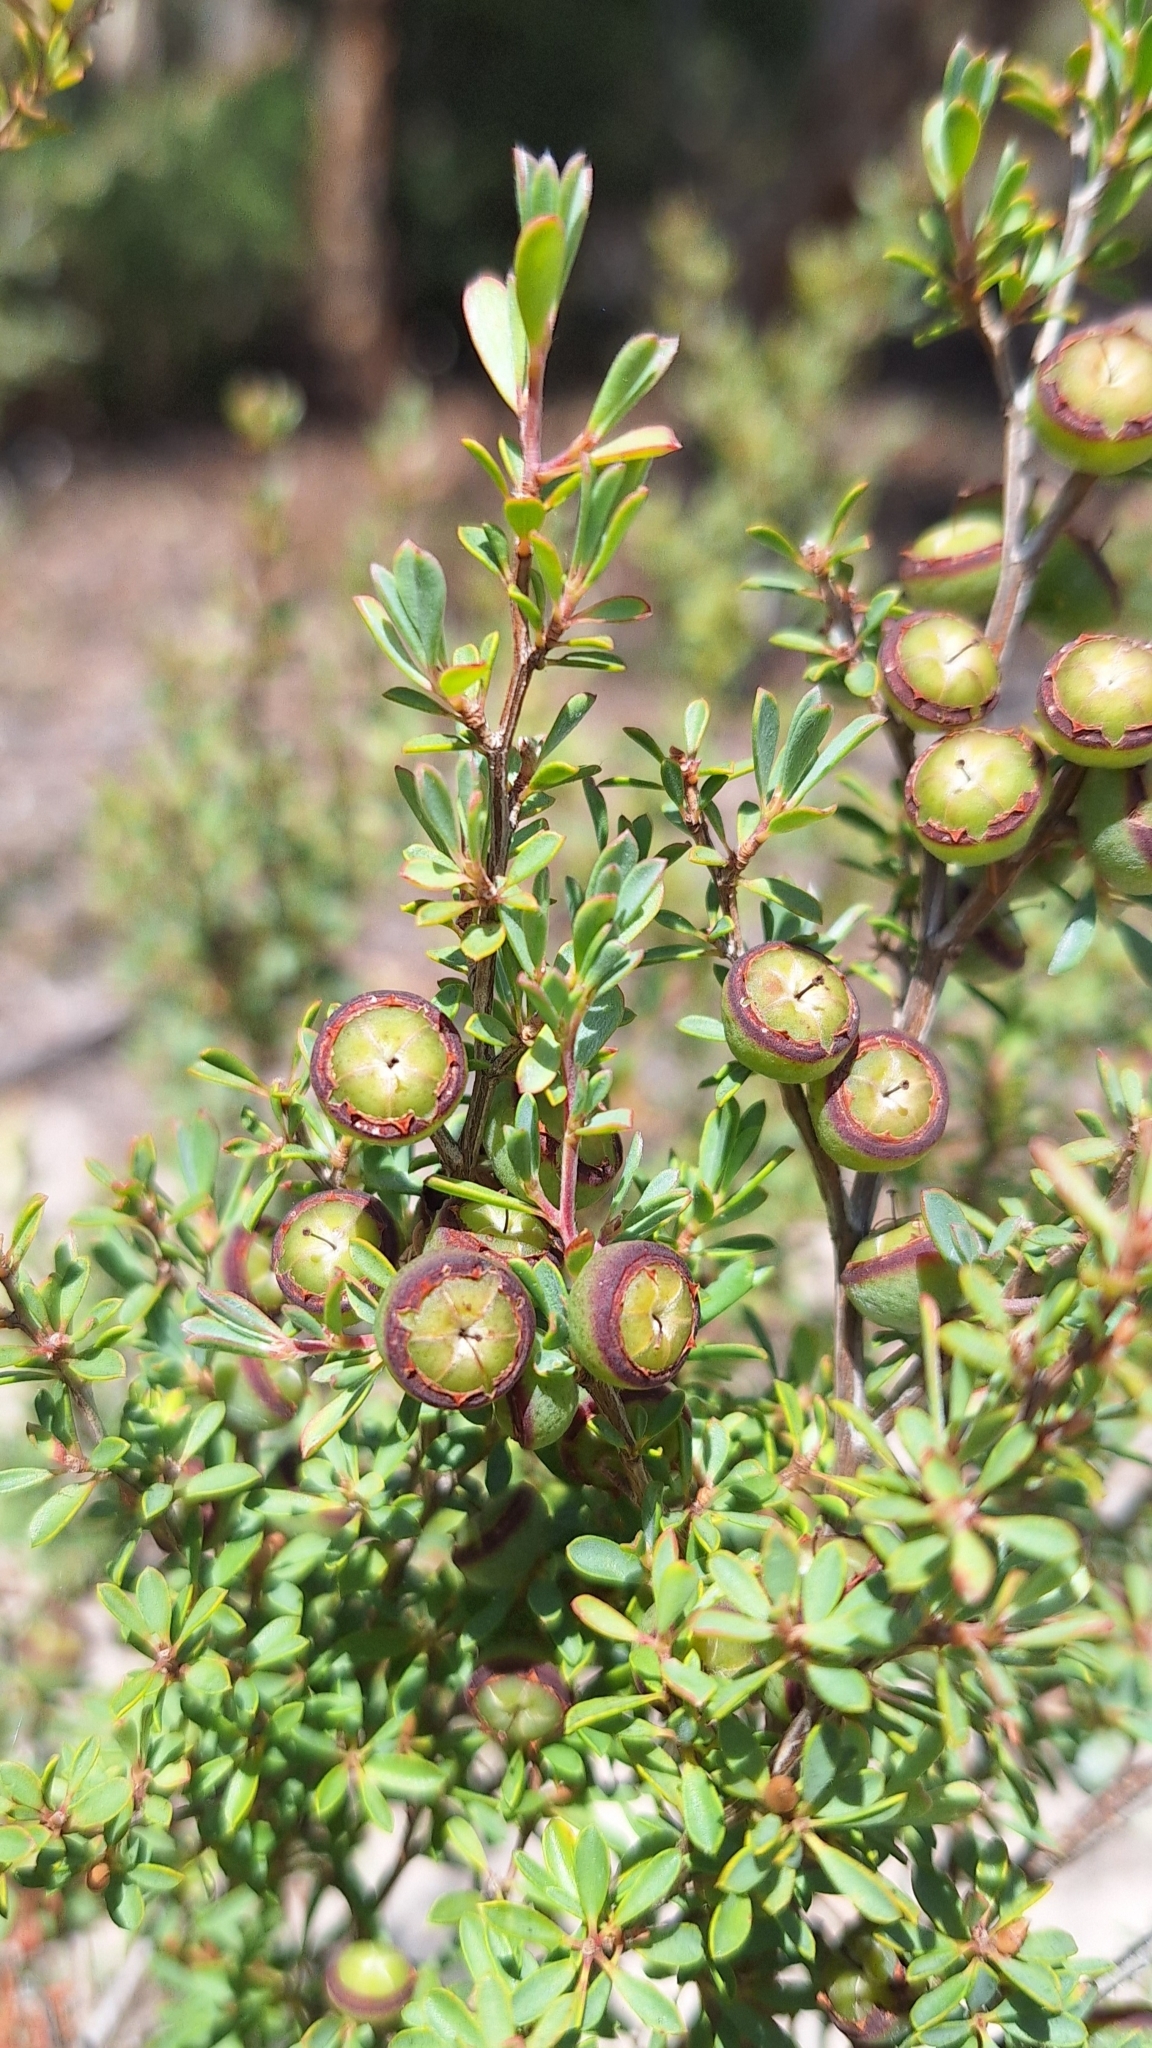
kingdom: Plantae
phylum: Tracheophyta
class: Magnoliopsida
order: Myrtales
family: Myrtaceae
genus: Leptospermum
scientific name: Leptospermum myrsinoides
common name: Heath teatree
